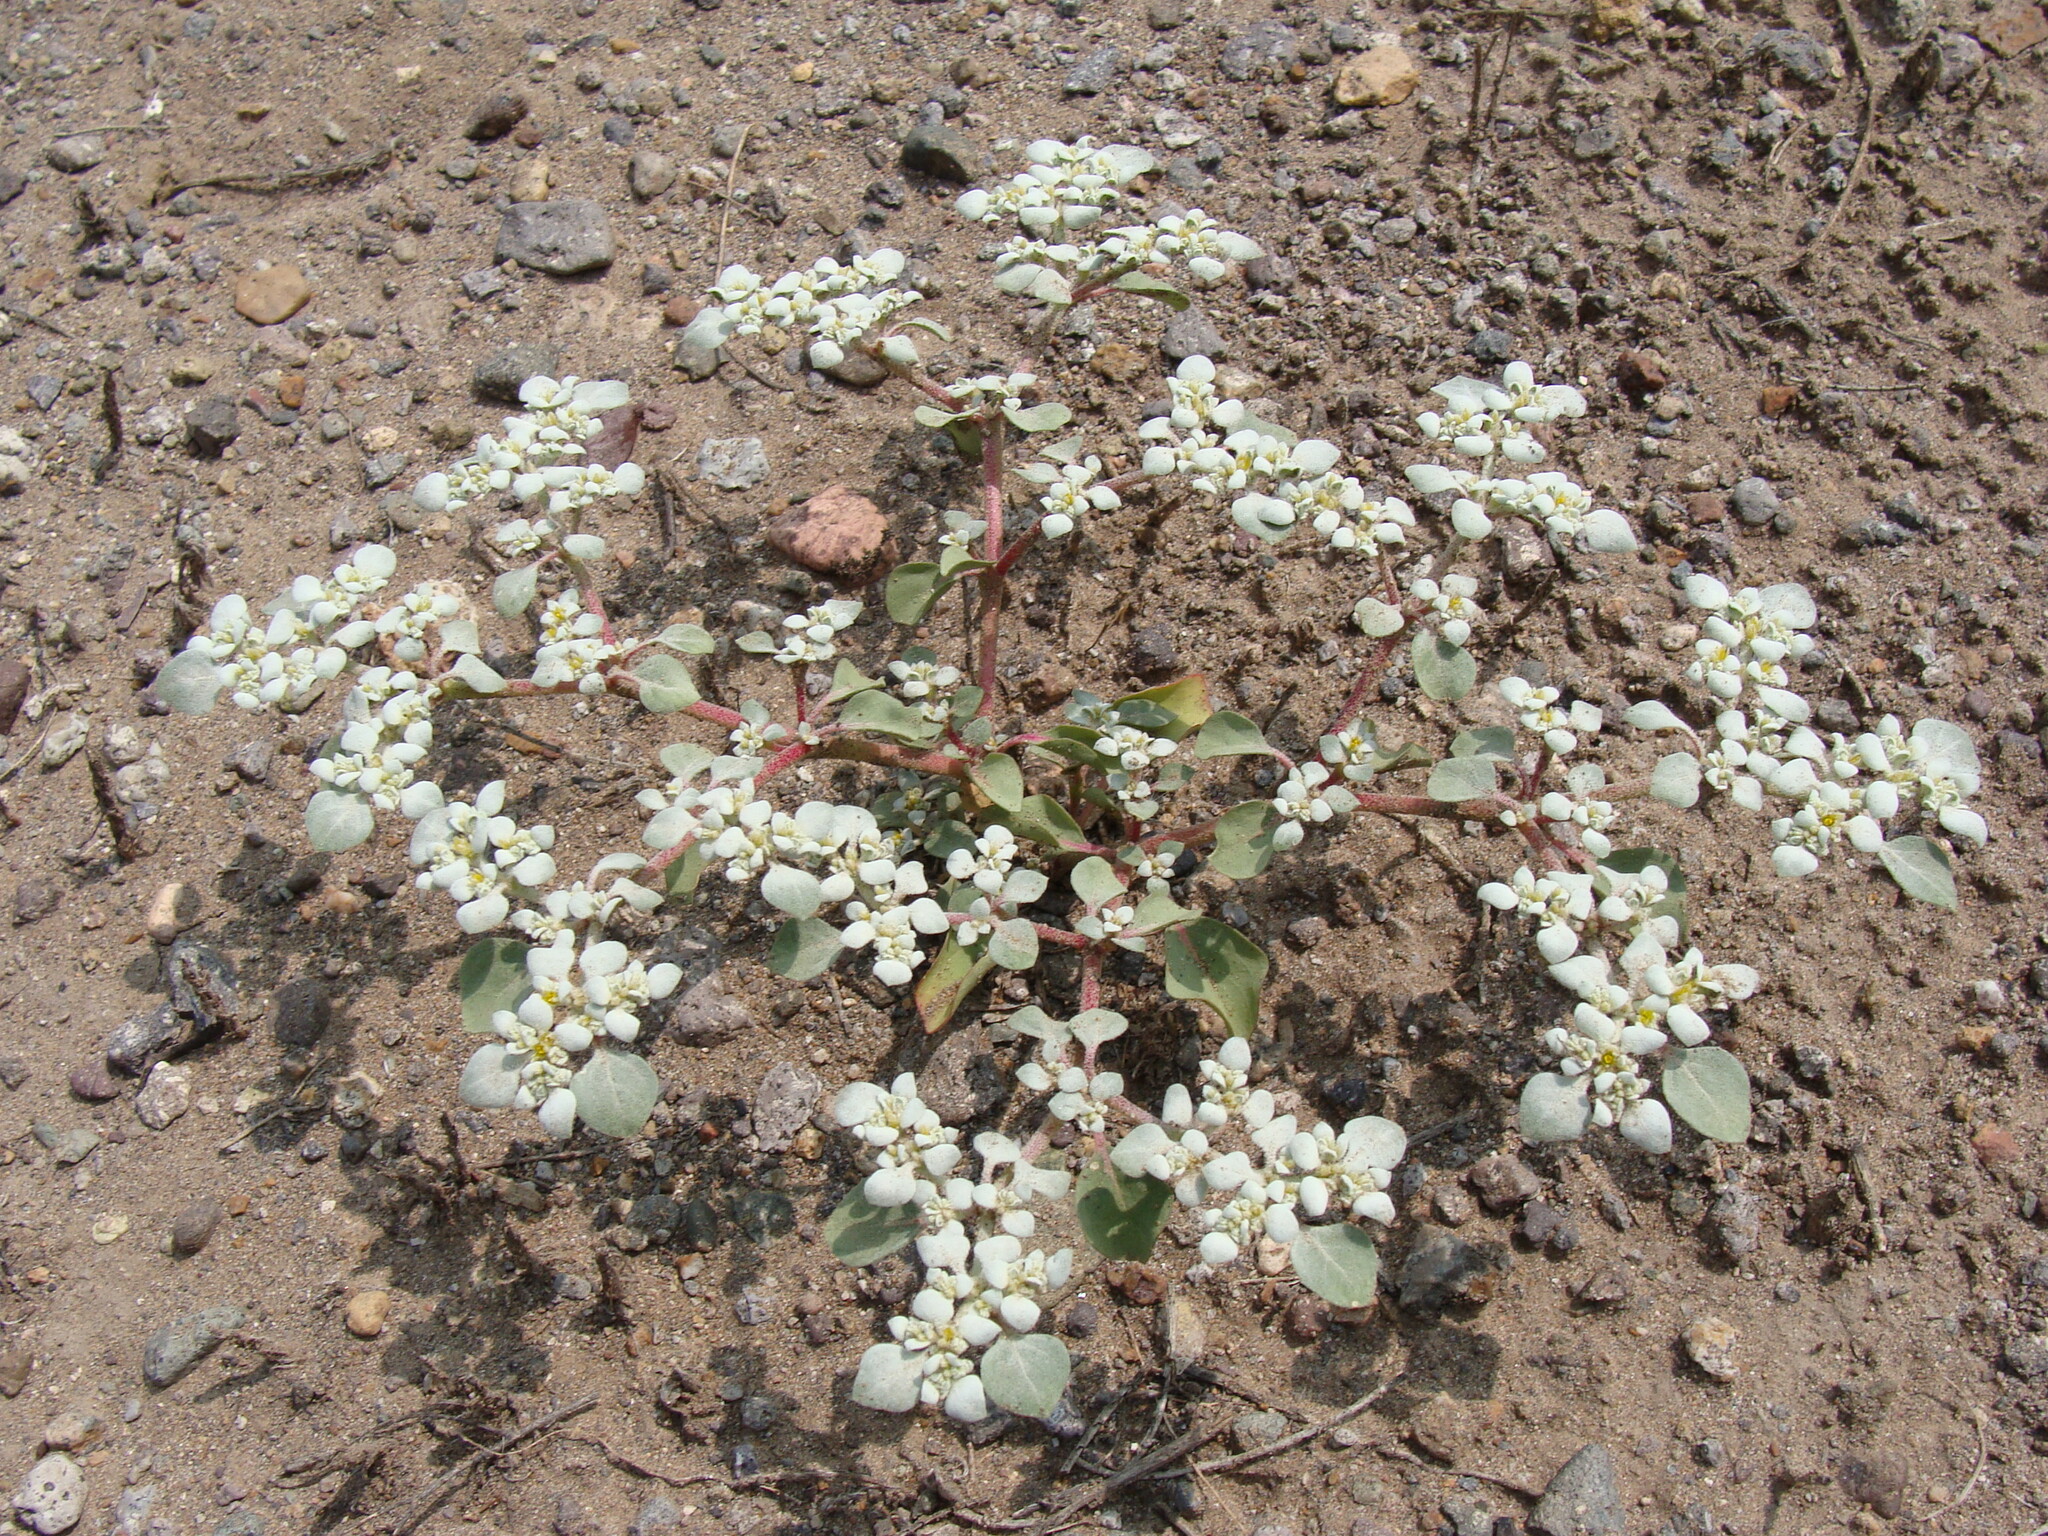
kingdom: Plantae
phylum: Tracheophyta
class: Magnoliopsida
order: Caryophyllales
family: Amaranthaceae
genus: Tidestromia
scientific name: Tidestromia lanuginosa
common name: Woolly tidestromia
